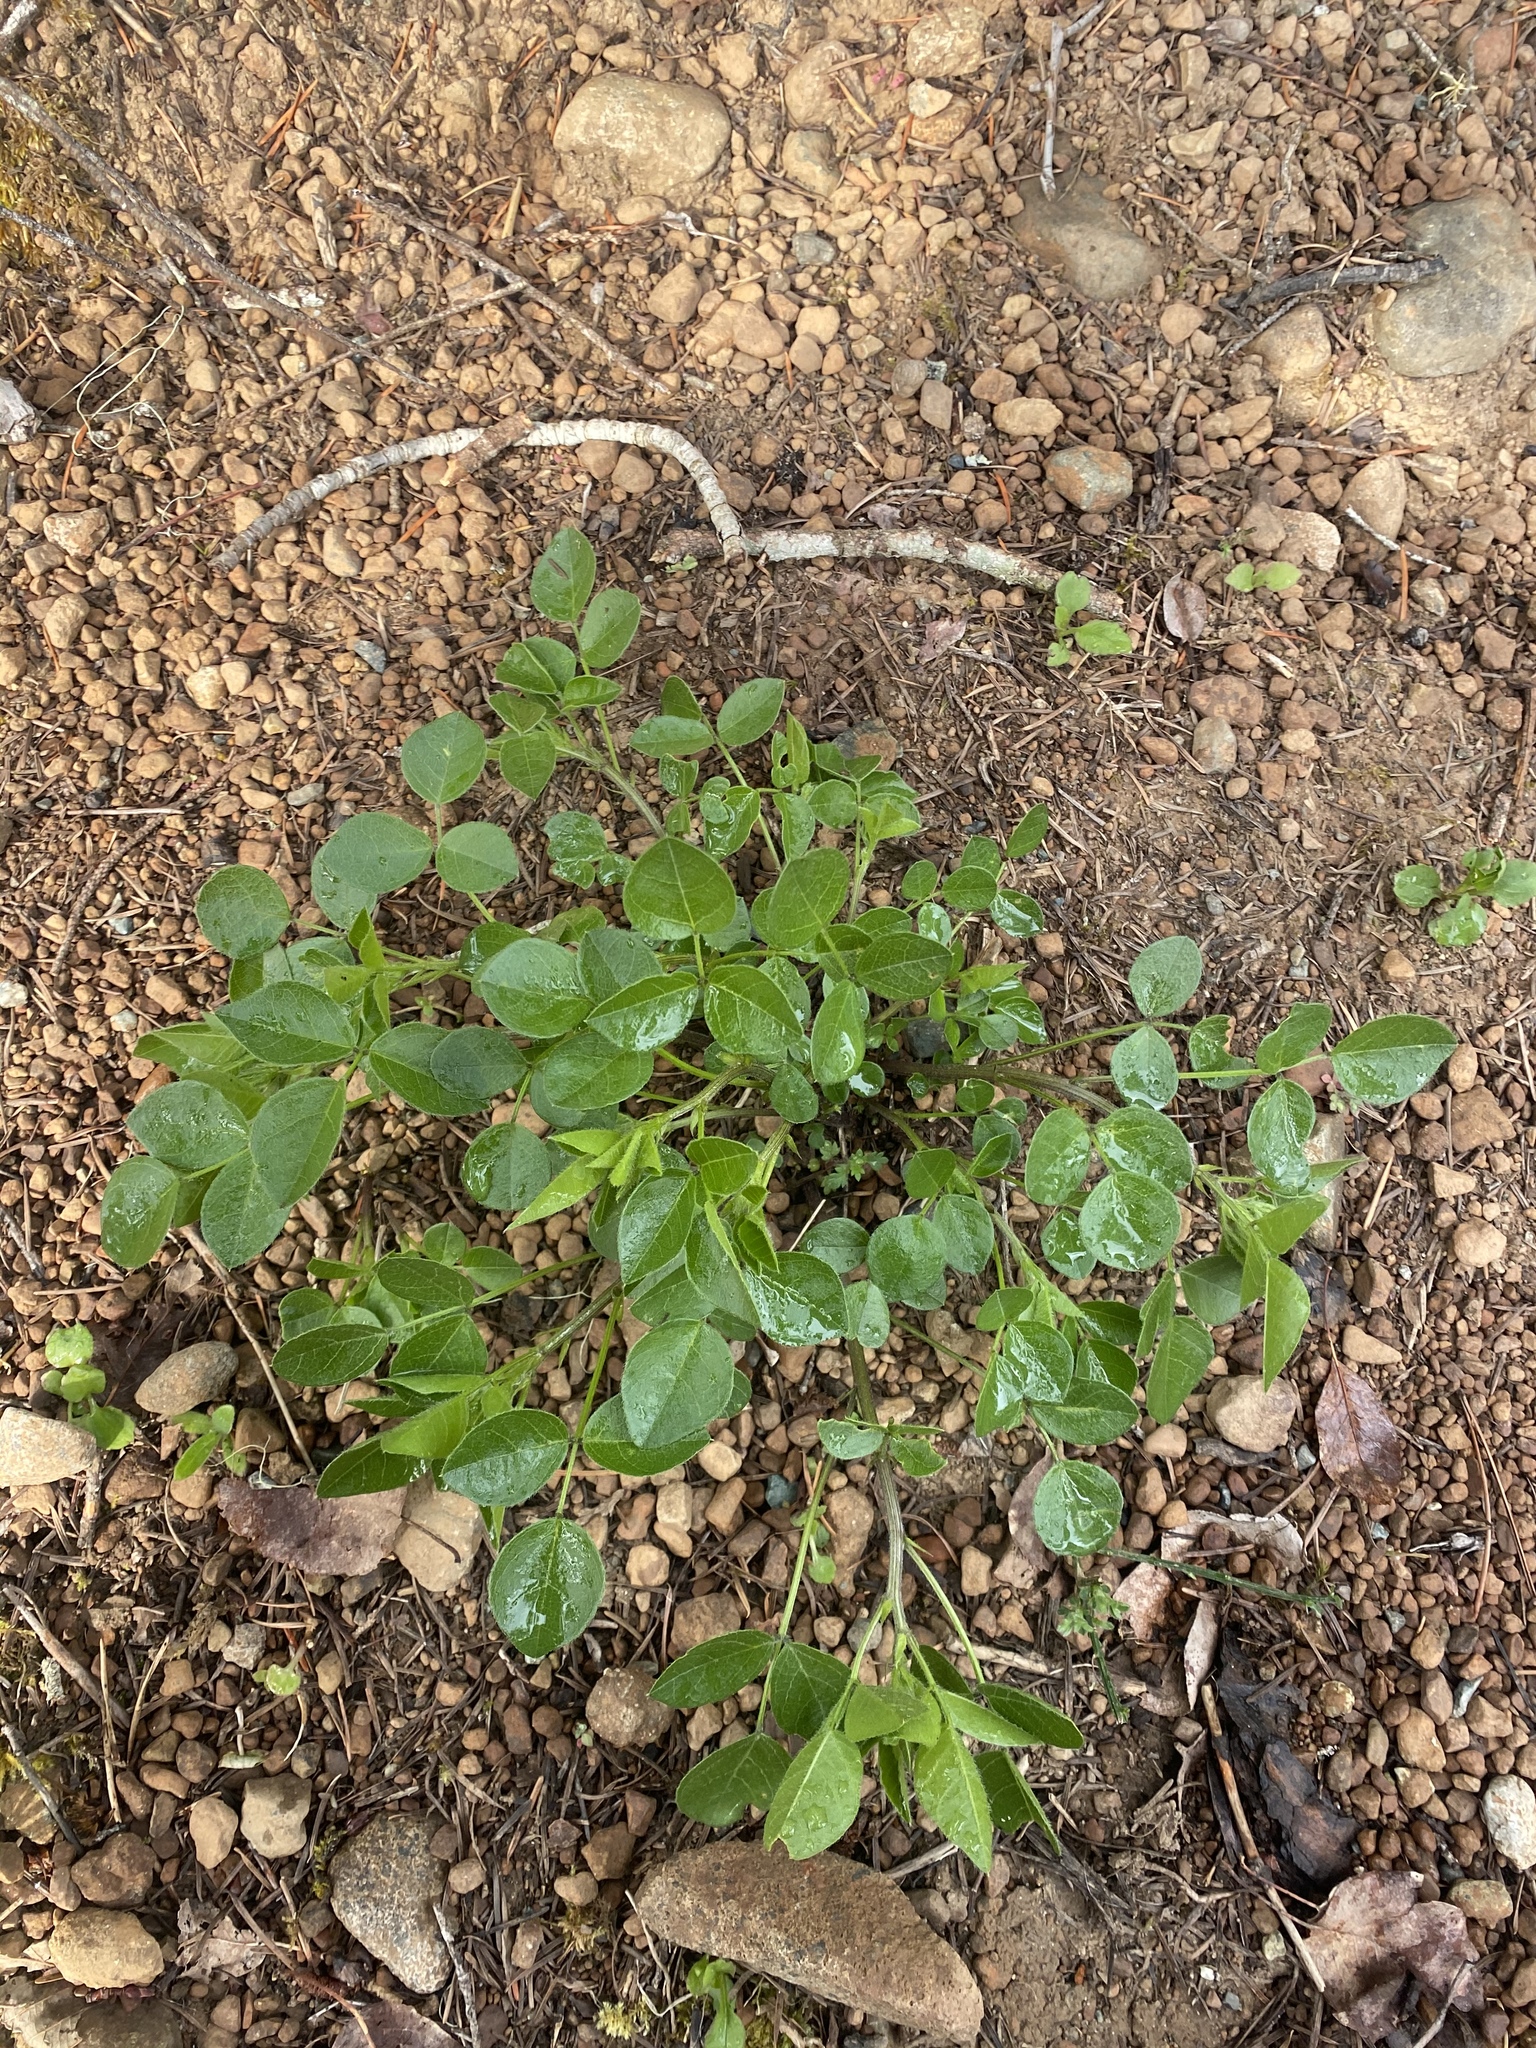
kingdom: Plantae
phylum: Tracheophyta
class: Magnoliopsida
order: Fabales
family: Fabaceae
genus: Rupertia
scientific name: Rupertia physodes
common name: California-tea
